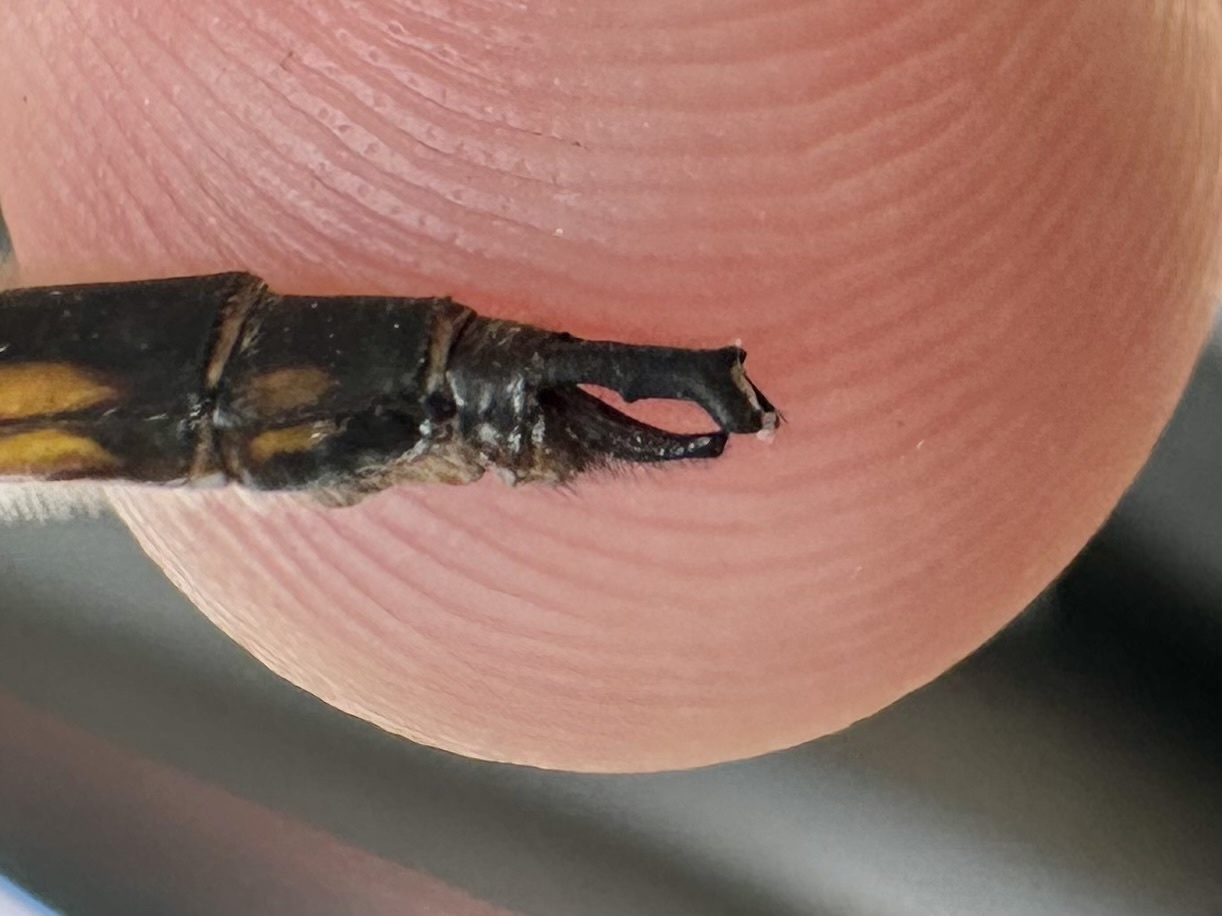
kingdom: Animalia
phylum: Arthropoda
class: Insecta
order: Odonata
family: Corduliidae
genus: Epitheca
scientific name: Epitheca canis
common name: Beaverpond baskettail
